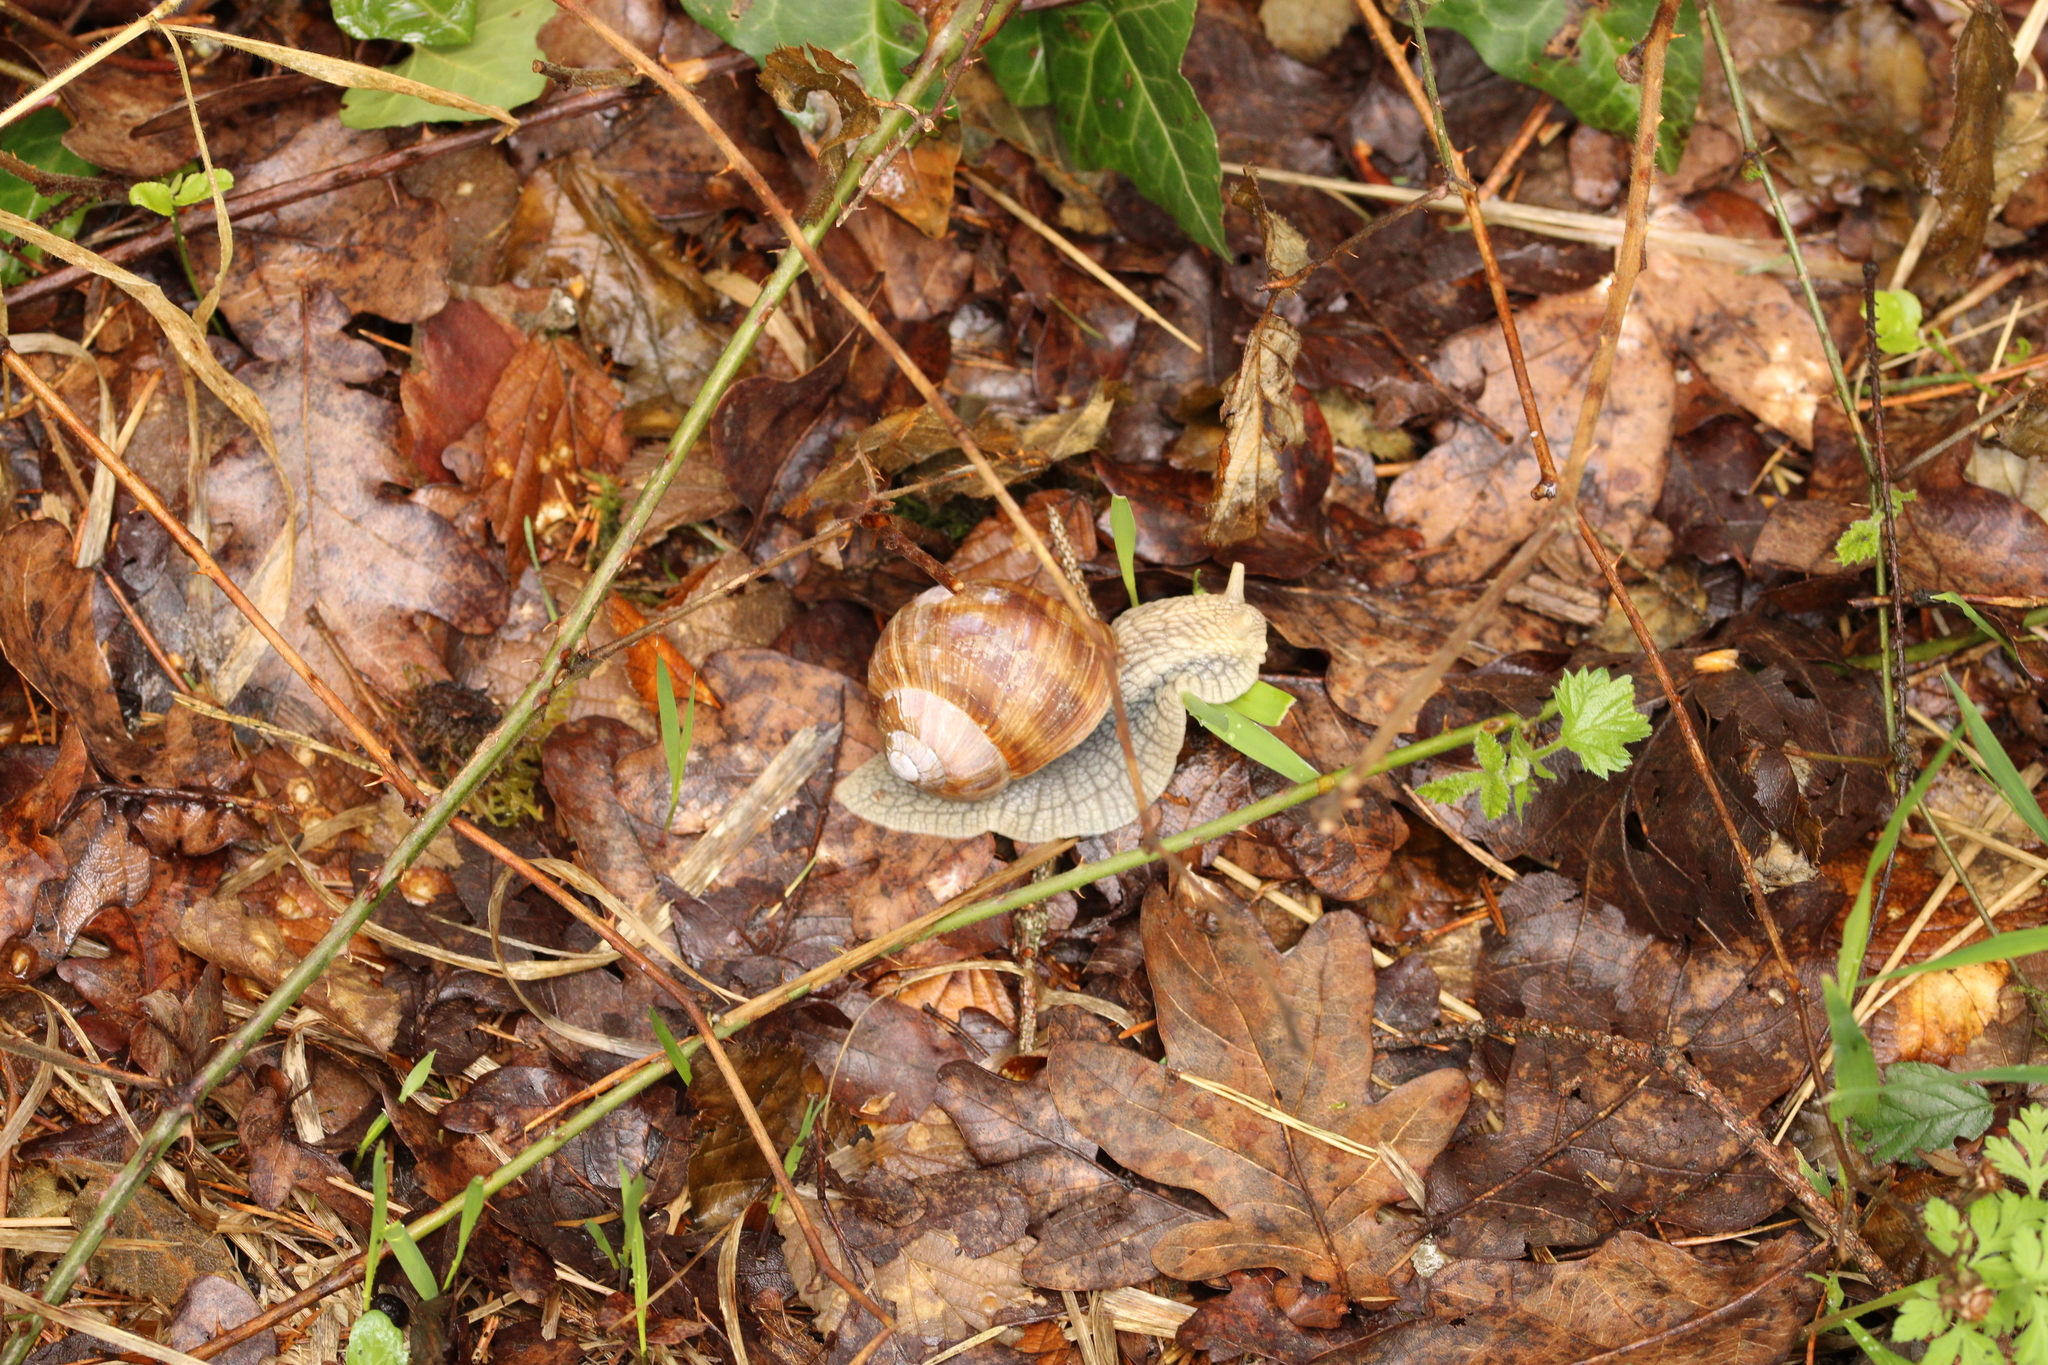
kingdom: Animalia
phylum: Mollusca
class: Gastropoda
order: Stylommatophora
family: Helicidae
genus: Helix
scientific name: Helix pomatia
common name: Roman snail
